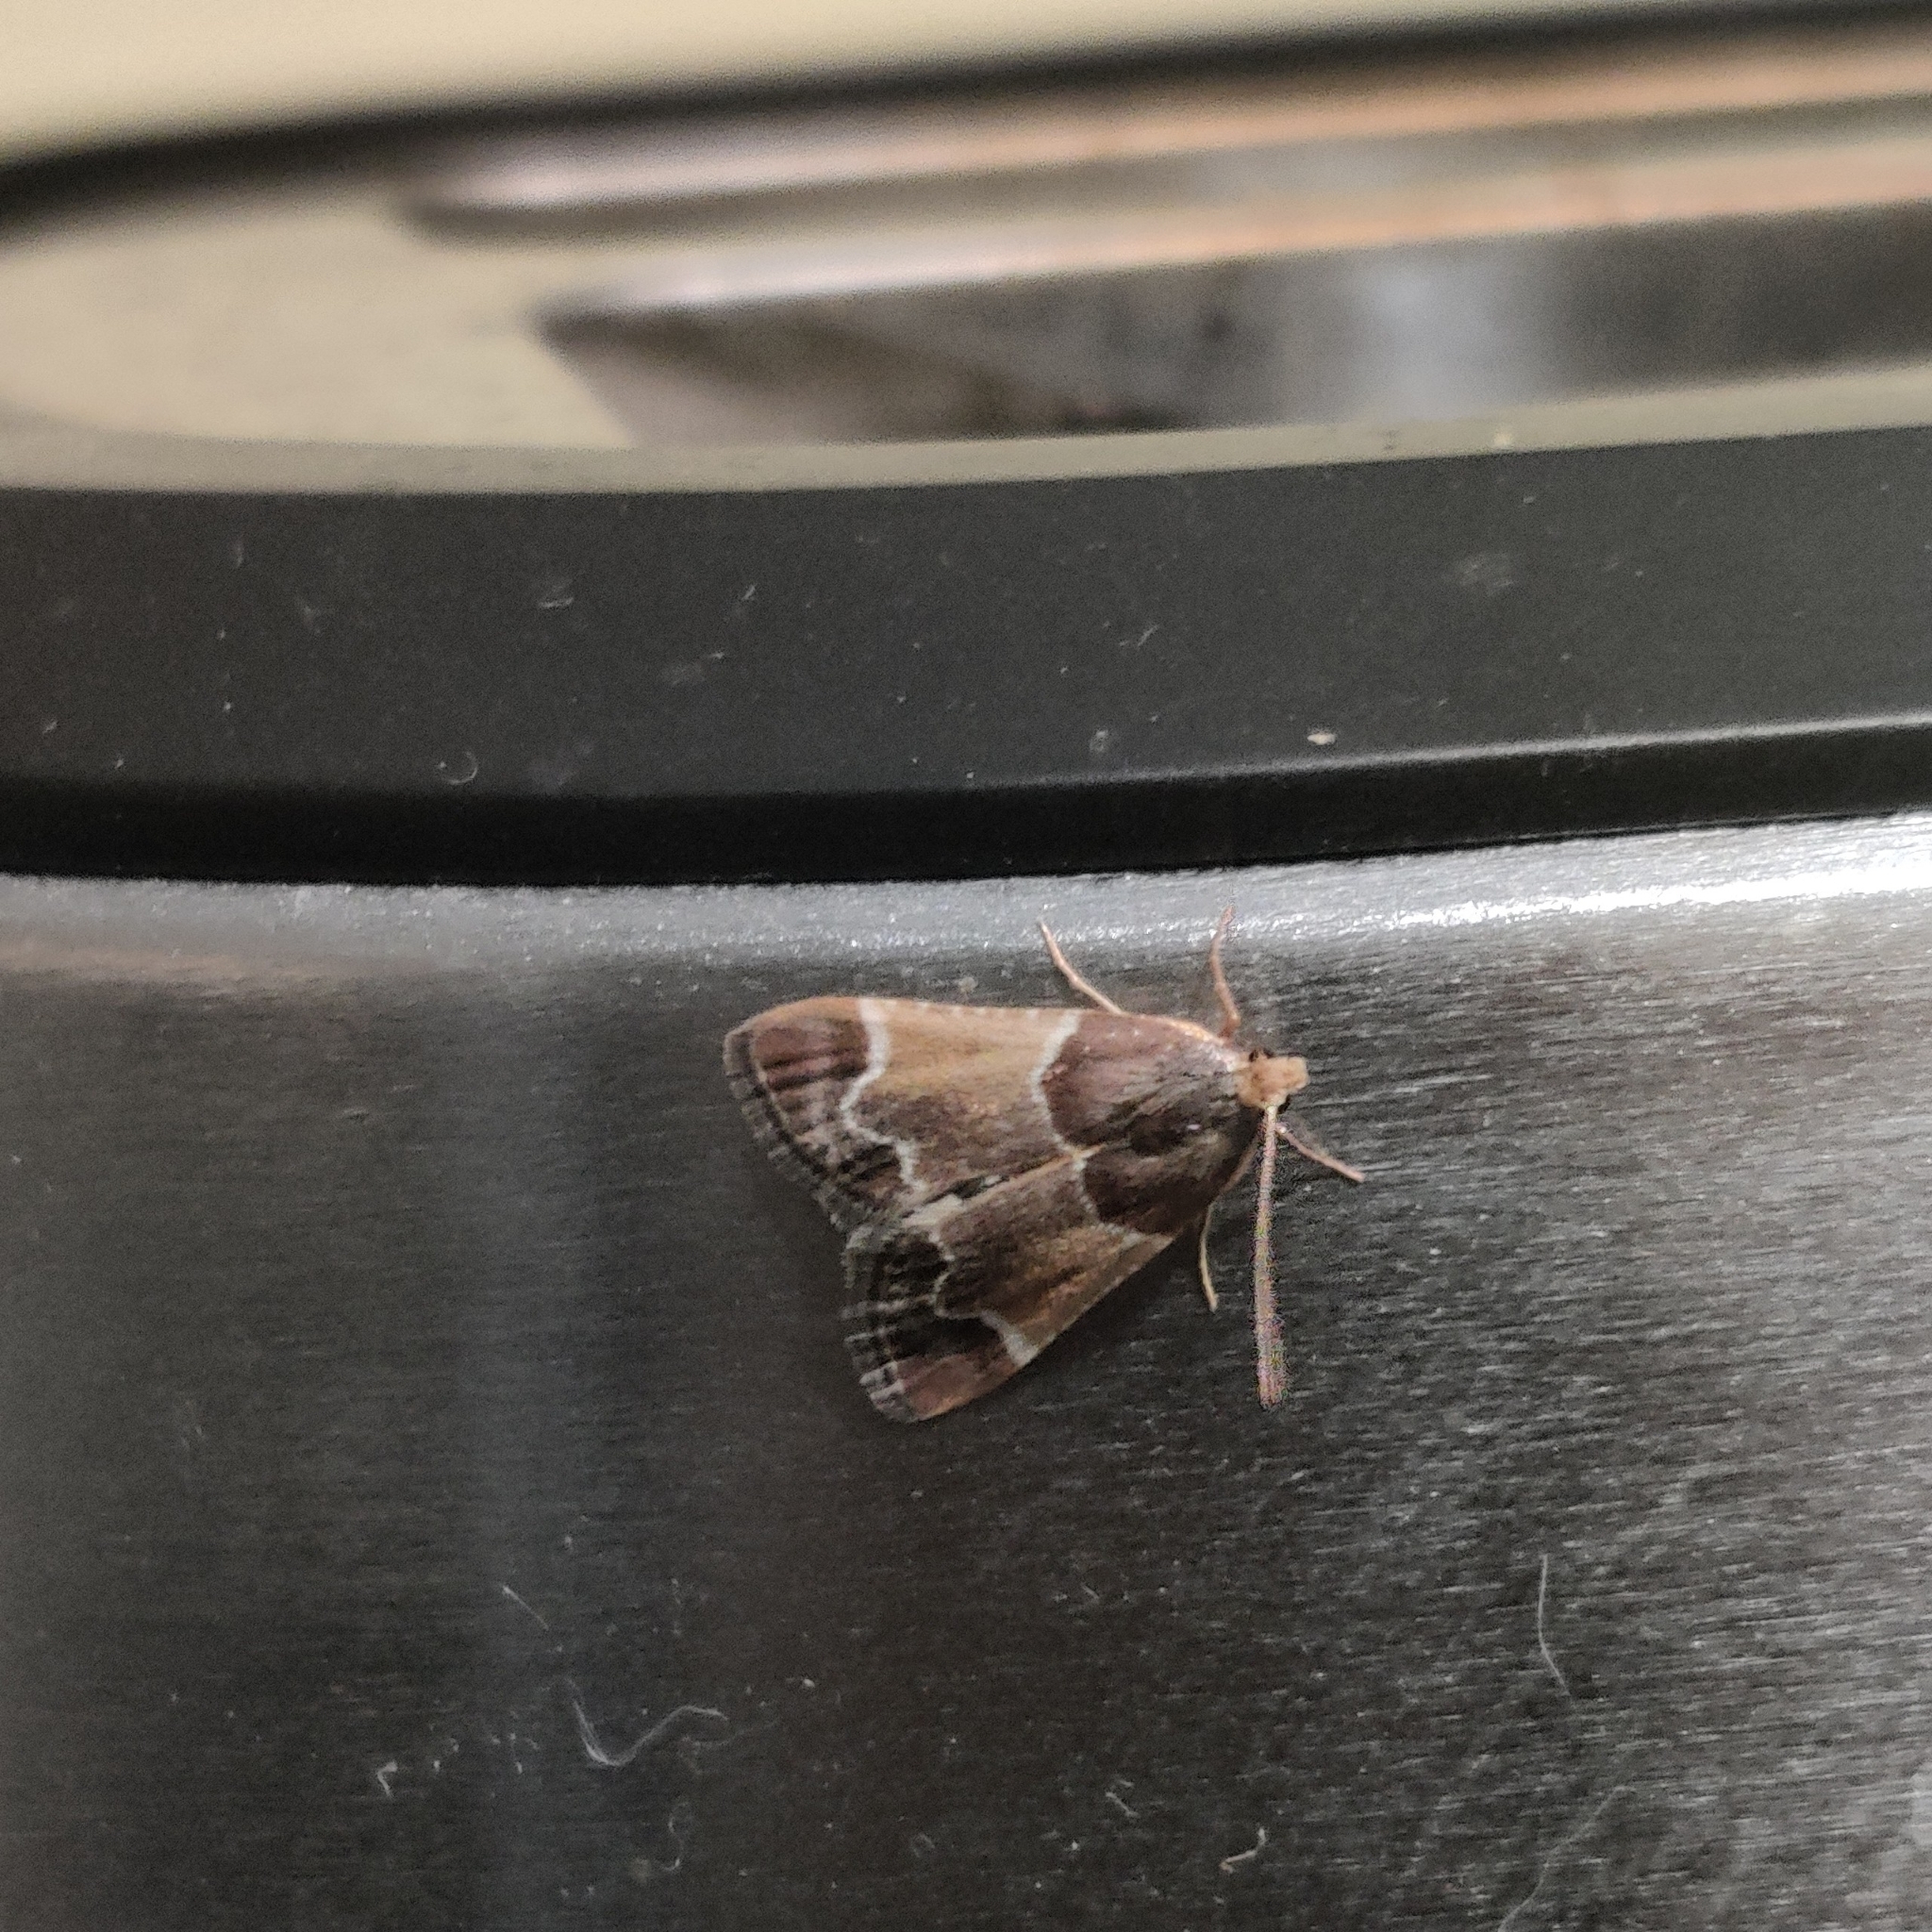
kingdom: Animalia
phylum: Arthropoda
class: Insecta
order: Lepidoptera
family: Pyralidae
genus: Pyralis
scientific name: Pyralis farinalis
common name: Meal moth
